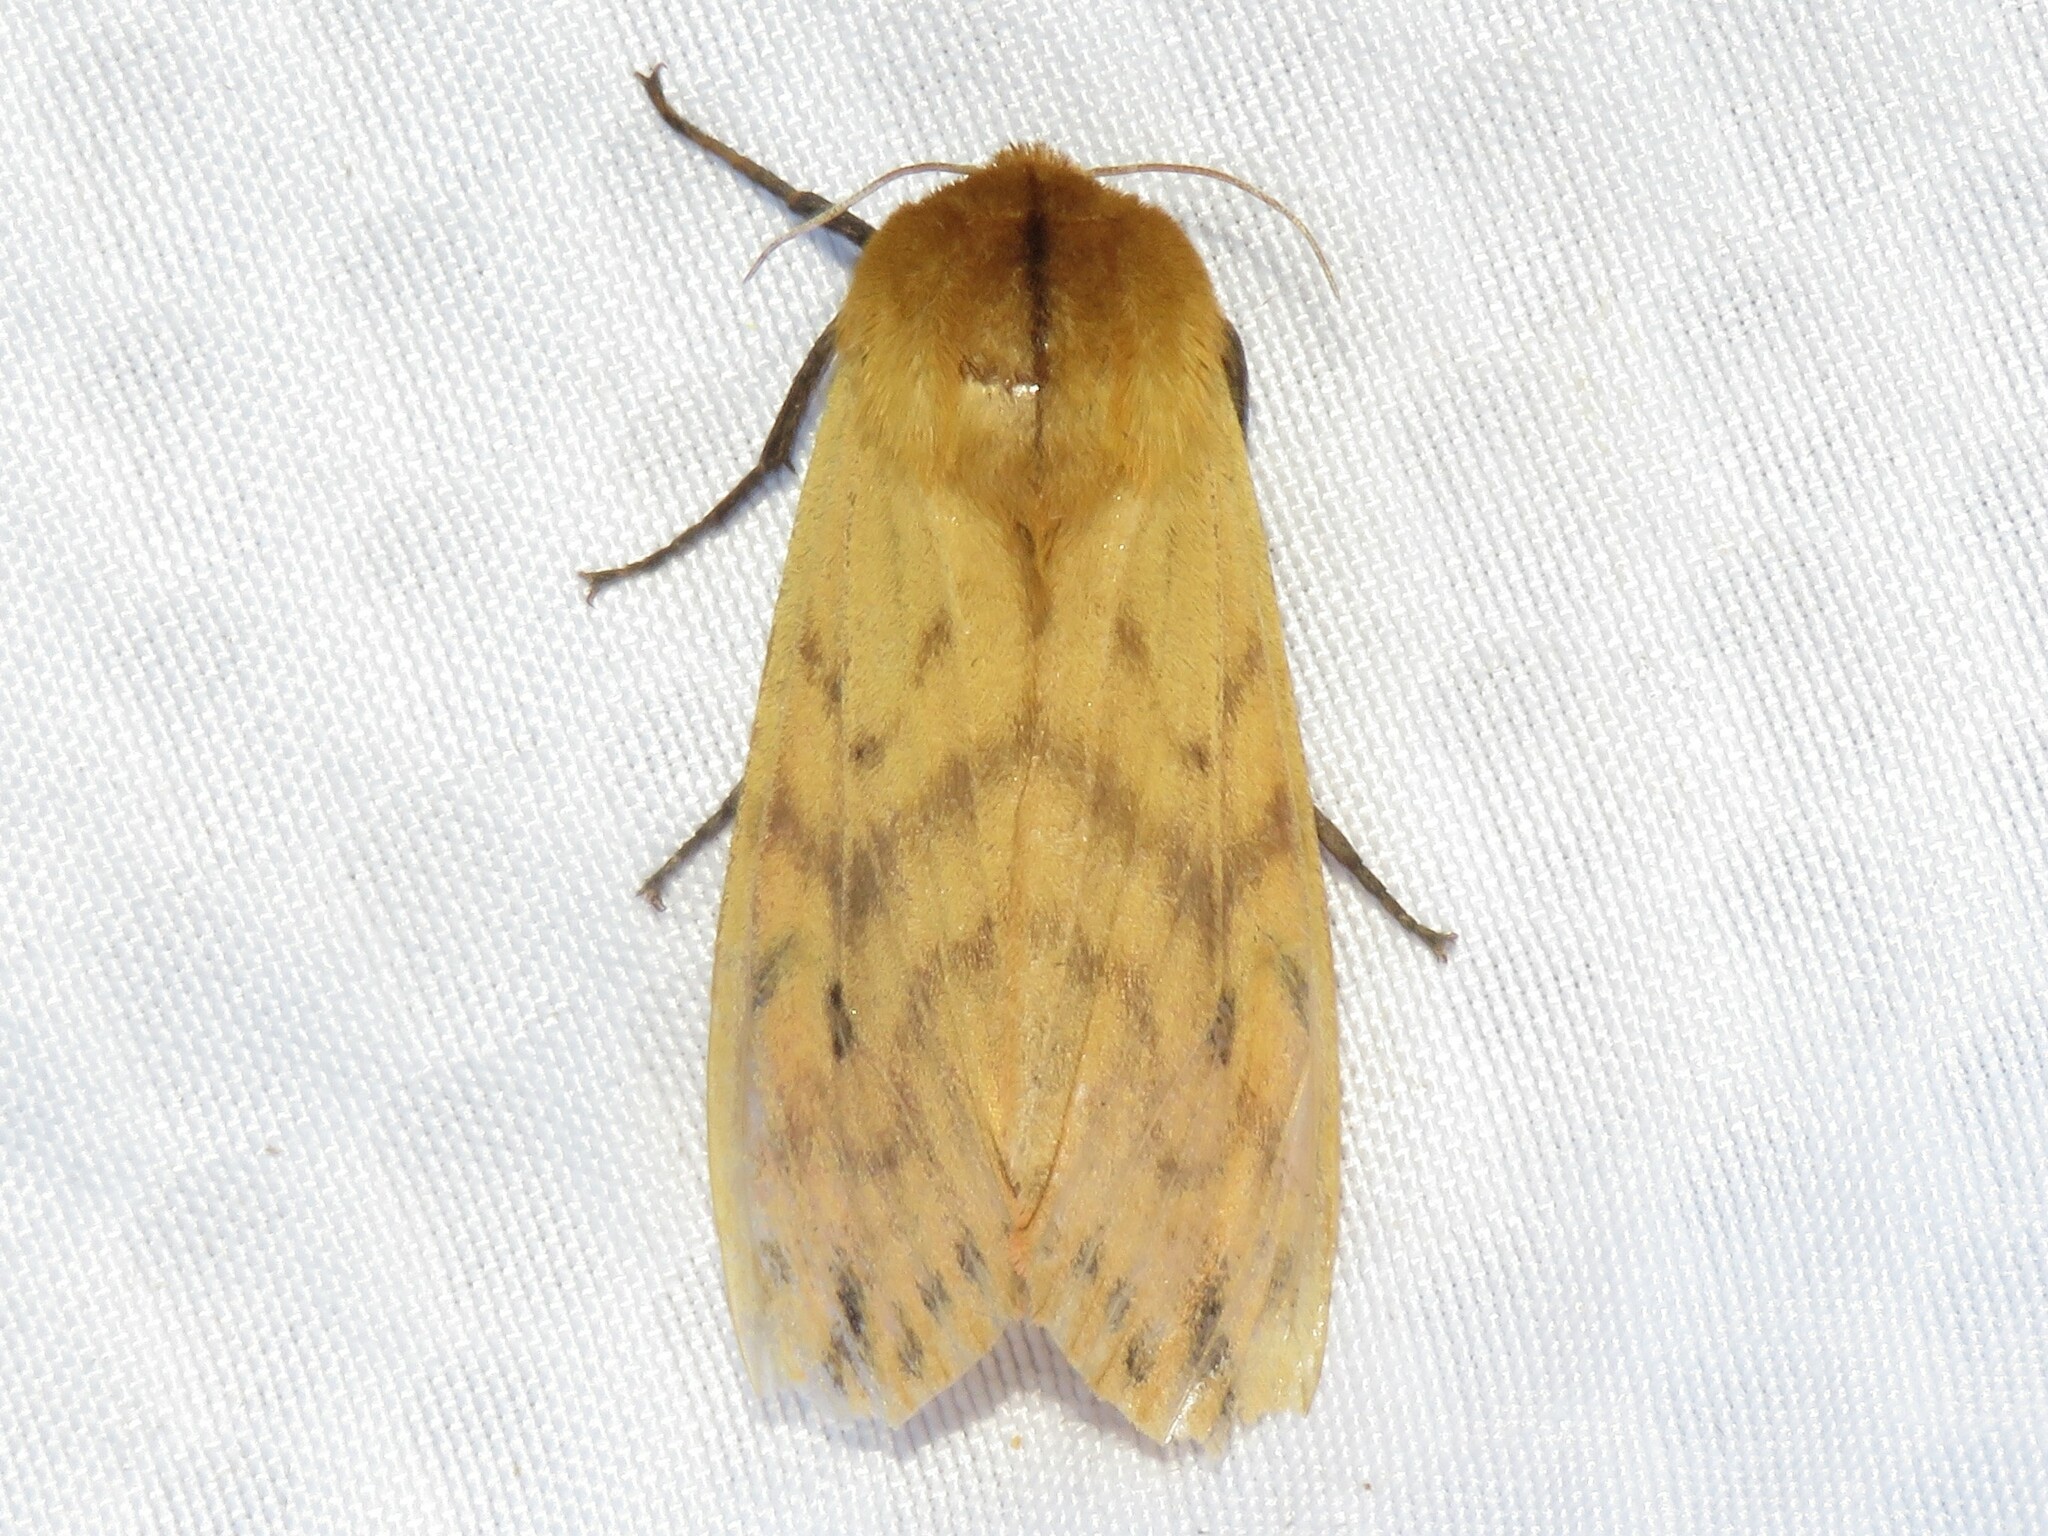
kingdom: Animalia
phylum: Arthropoda
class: Insecta
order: Lepidoptera
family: Erebidae
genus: Pyrrharctia
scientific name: Pyrrharctia isabella
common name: Isabella tiger moth
